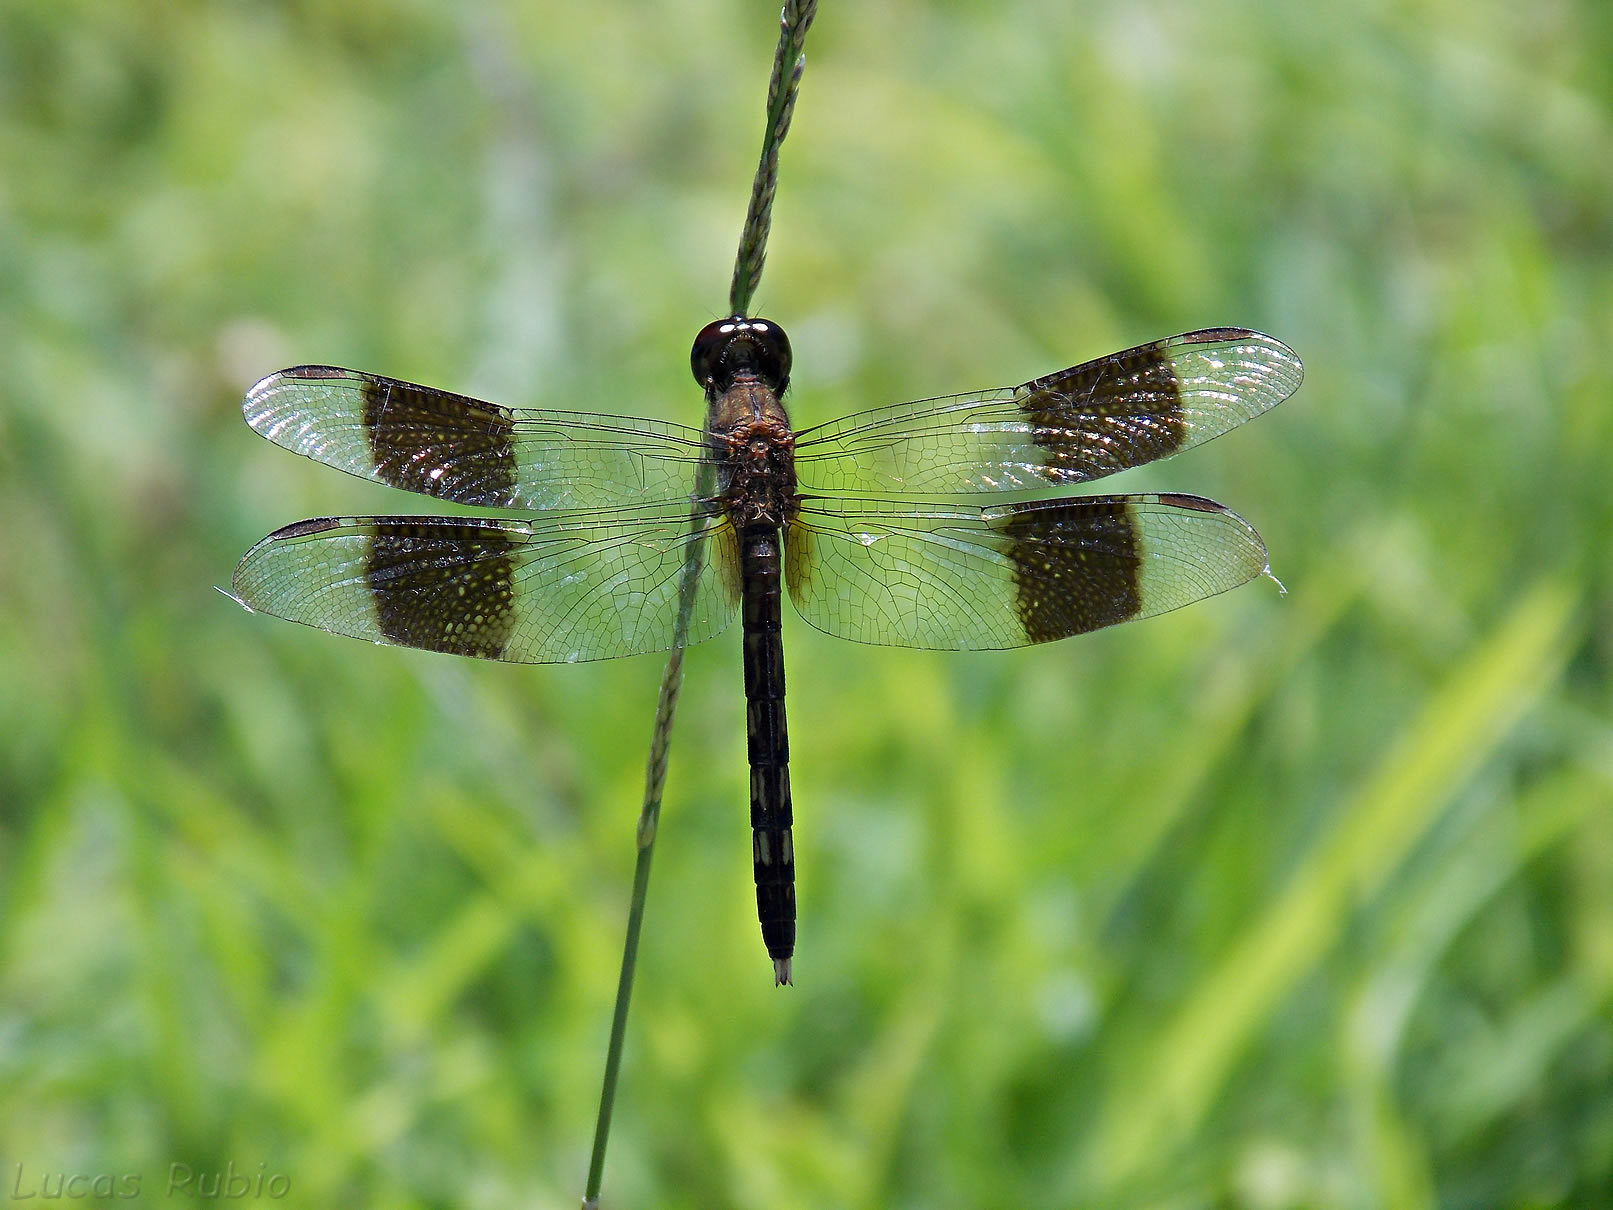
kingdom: Animalia
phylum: Arthropoda
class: Insecta
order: Odonata
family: Libellulidae
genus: Erythrodiplax
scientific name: Erythrodiplax umbrata
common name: Band-winged dragonlet
